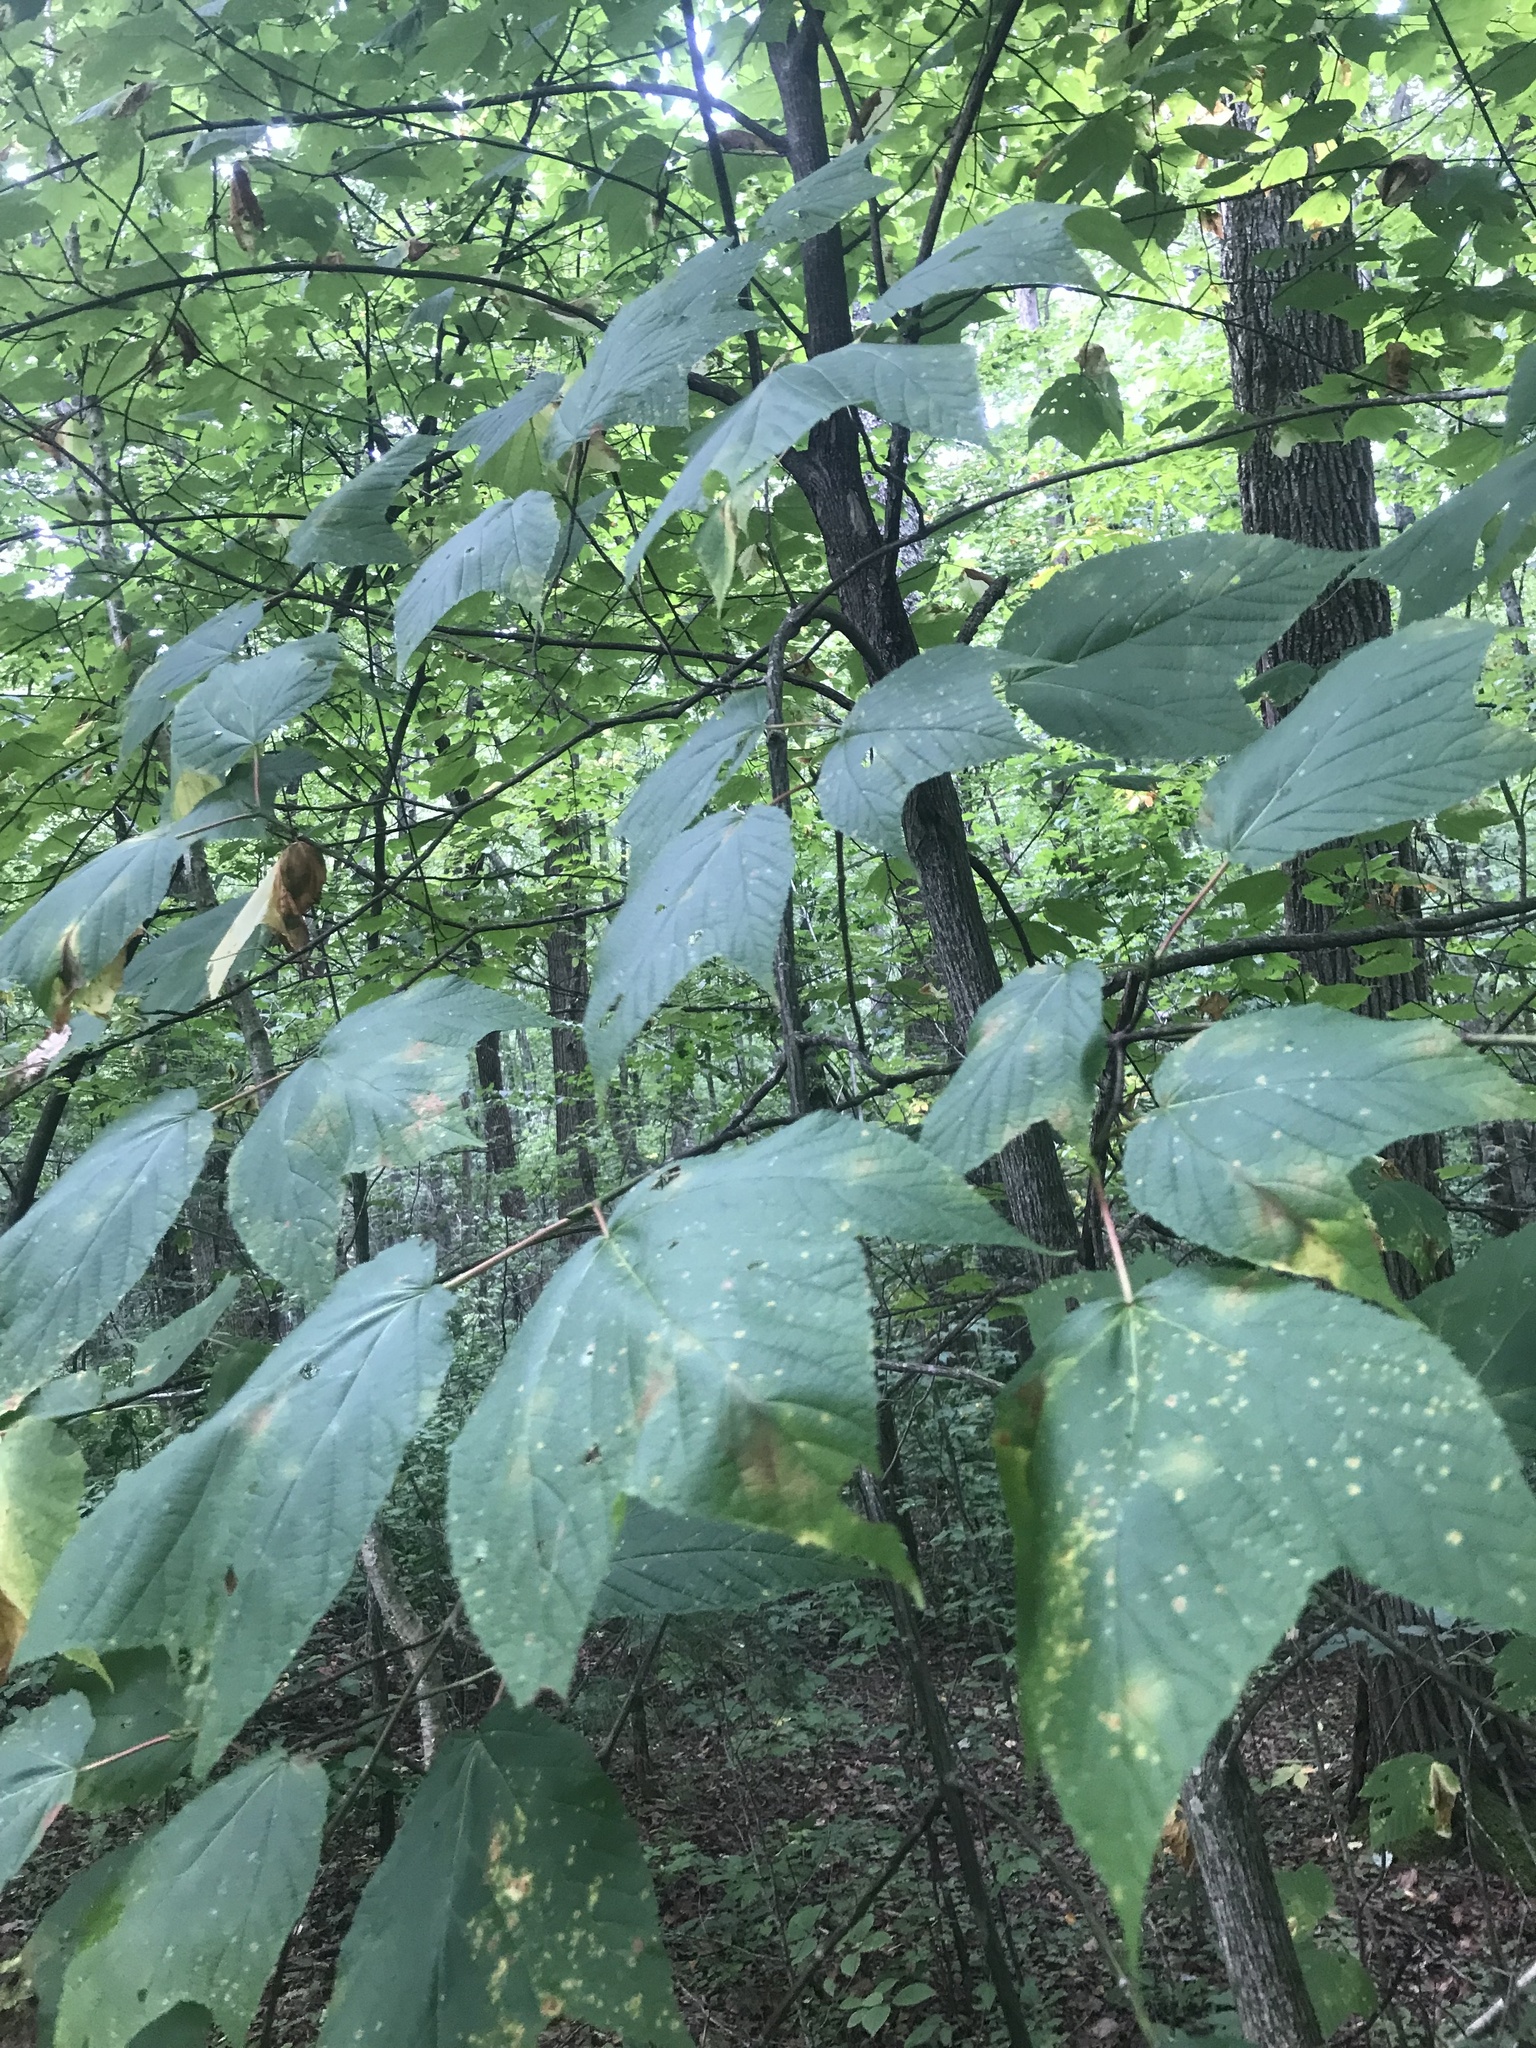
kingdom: Plantae
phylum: Tracheophyta
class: Magnoliopsida
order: Sapindales
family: Sapindaceae
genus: Acer
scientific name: Acer pensylvanicum
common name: Moosewood
